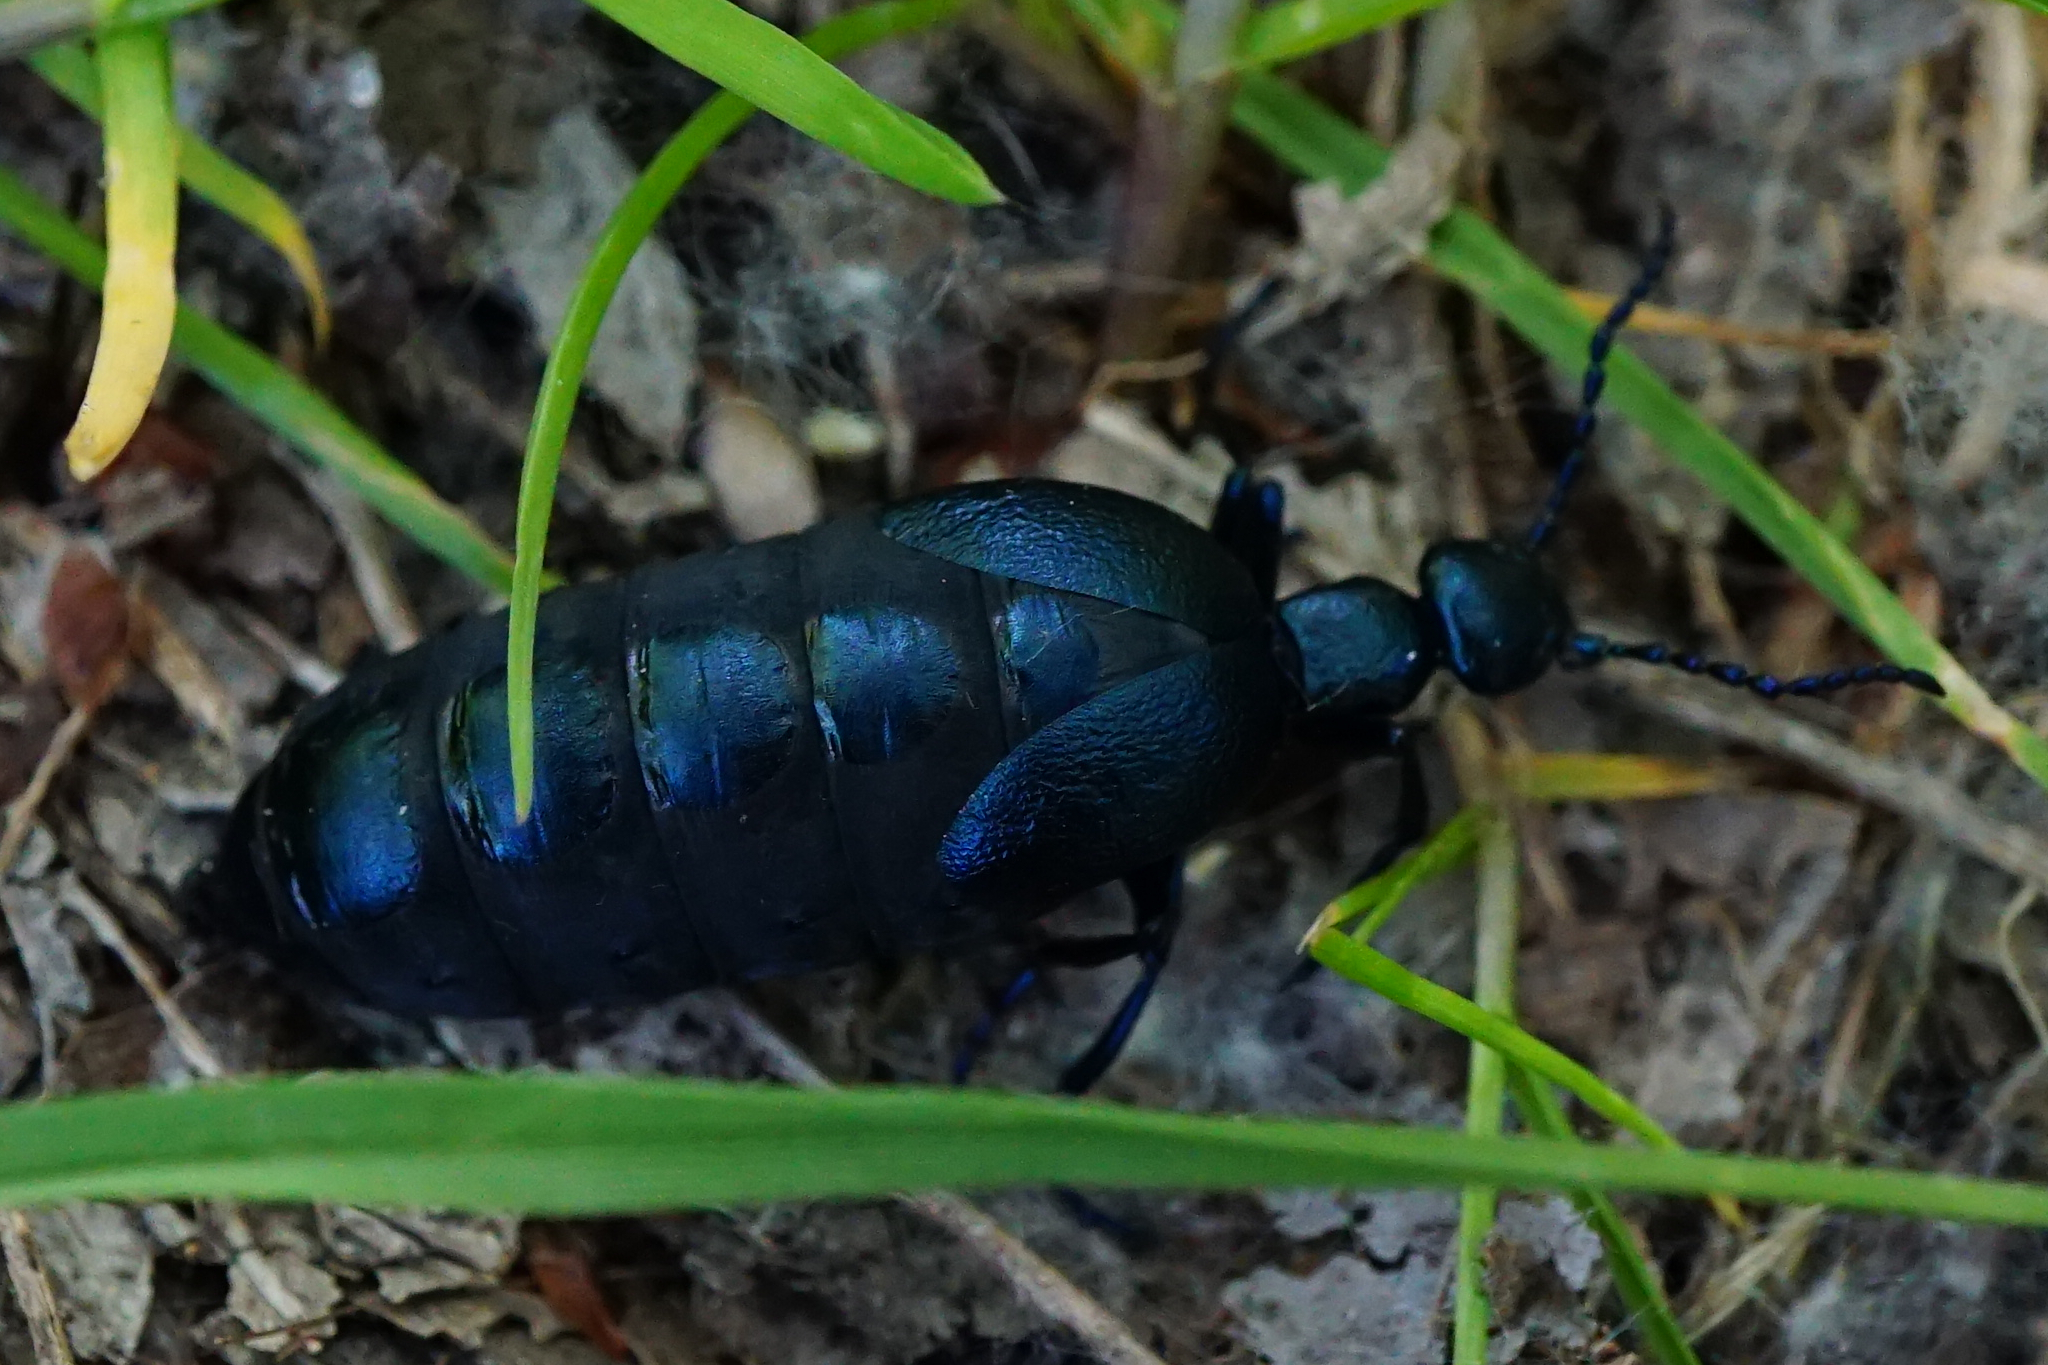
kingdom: Animalia
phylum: Arthropoda
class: Insecta
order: Coleoptera
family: Meloidae
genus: Meloe
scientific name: Meloe violaceus
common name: Violet oil-beetle
